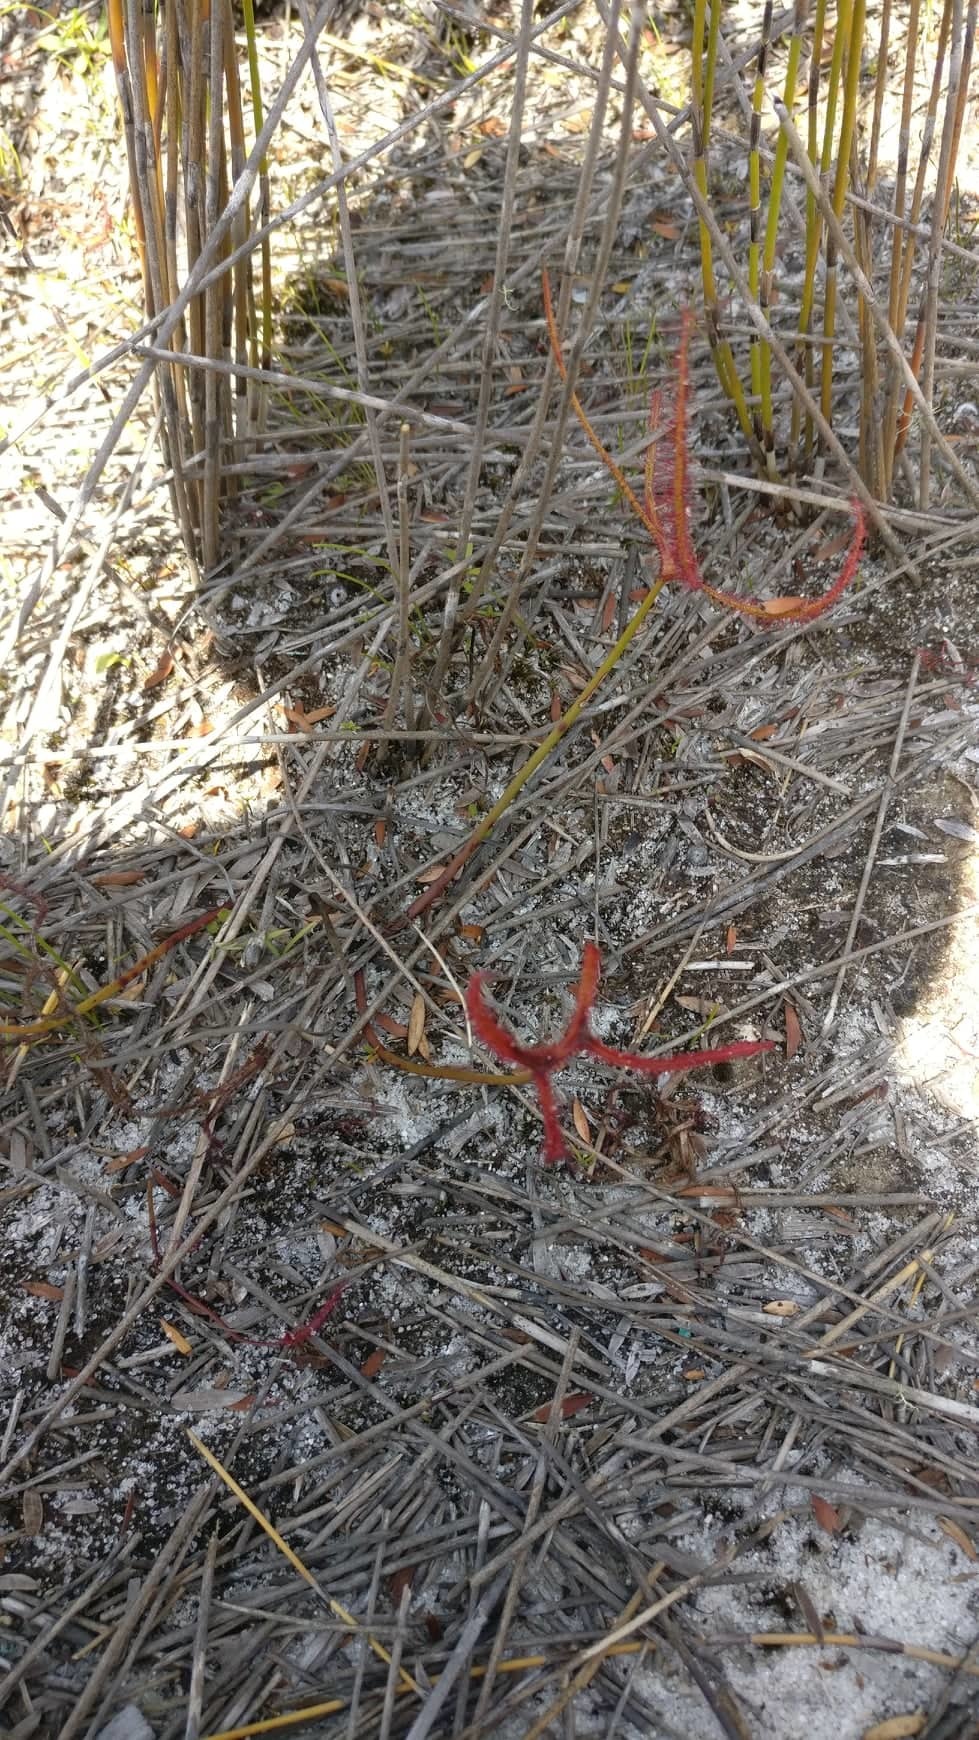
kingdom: Plantae
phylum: Tracheophyta
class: Magnoliopsida
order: Caryophyllales
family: Droseraceae
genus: Drosera
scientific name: Drosera binata
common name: Forked sundew
